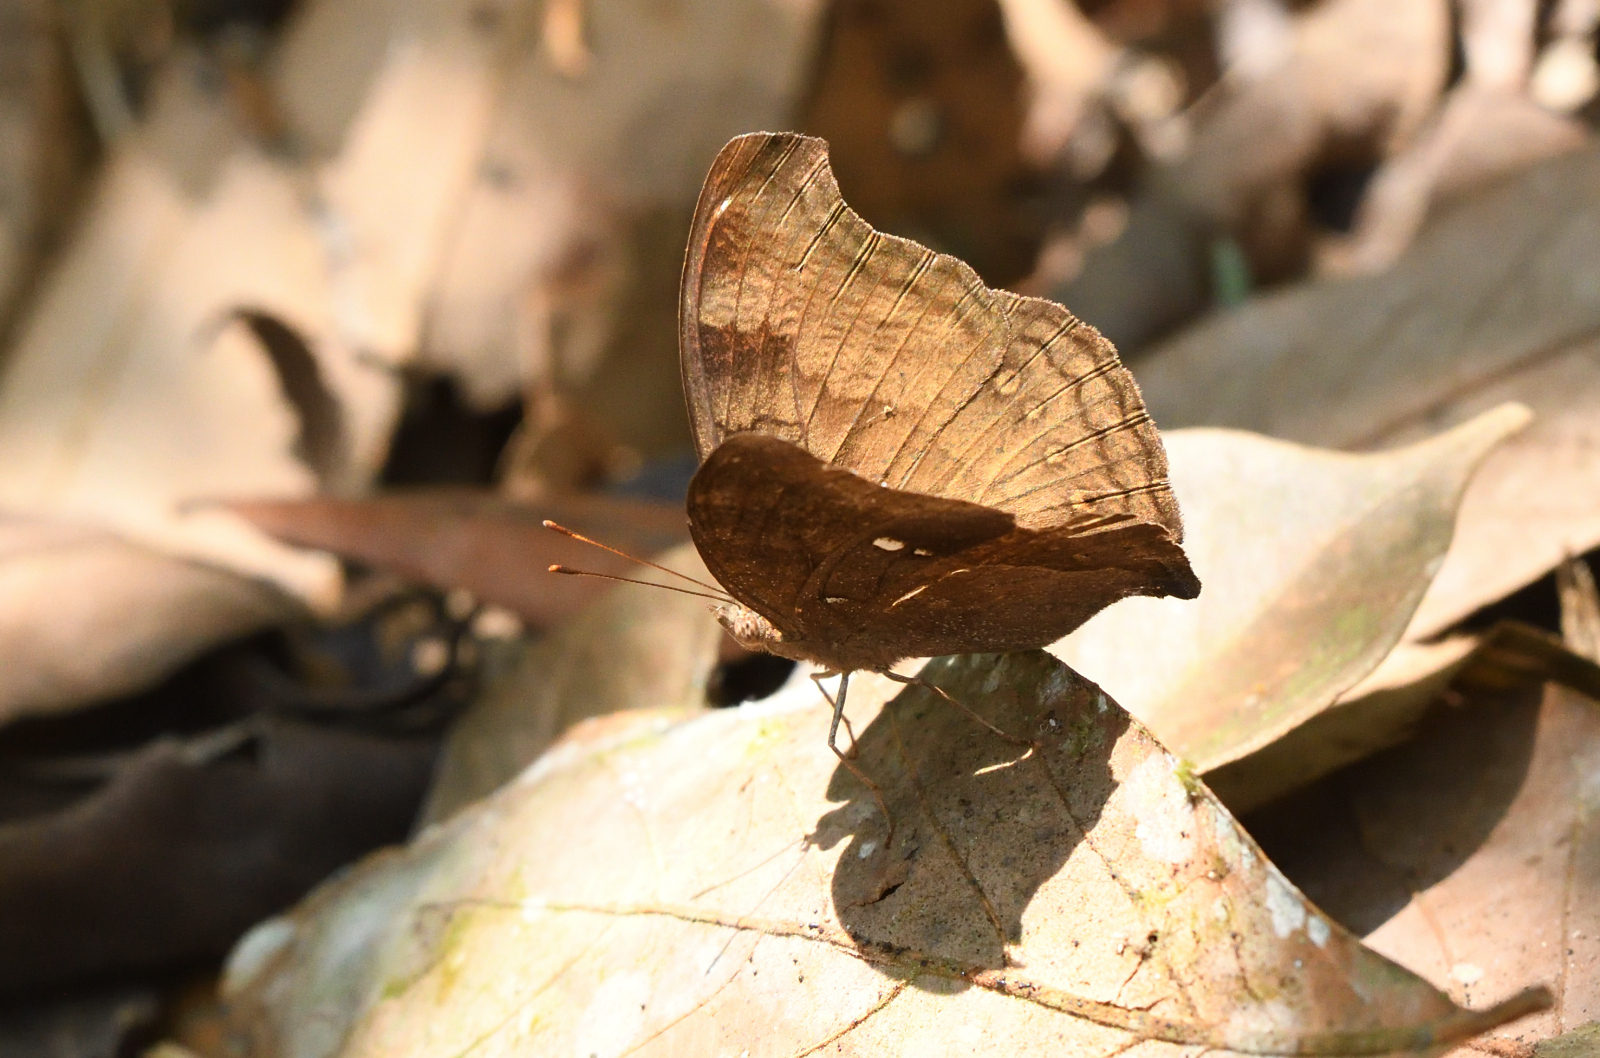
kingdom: Animalia
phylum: Arthropoda
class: Insecta
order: Lepidoptera
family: Nymphalidae
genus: Junonia
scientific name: Junonia iphita
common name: Chocolate pansy
